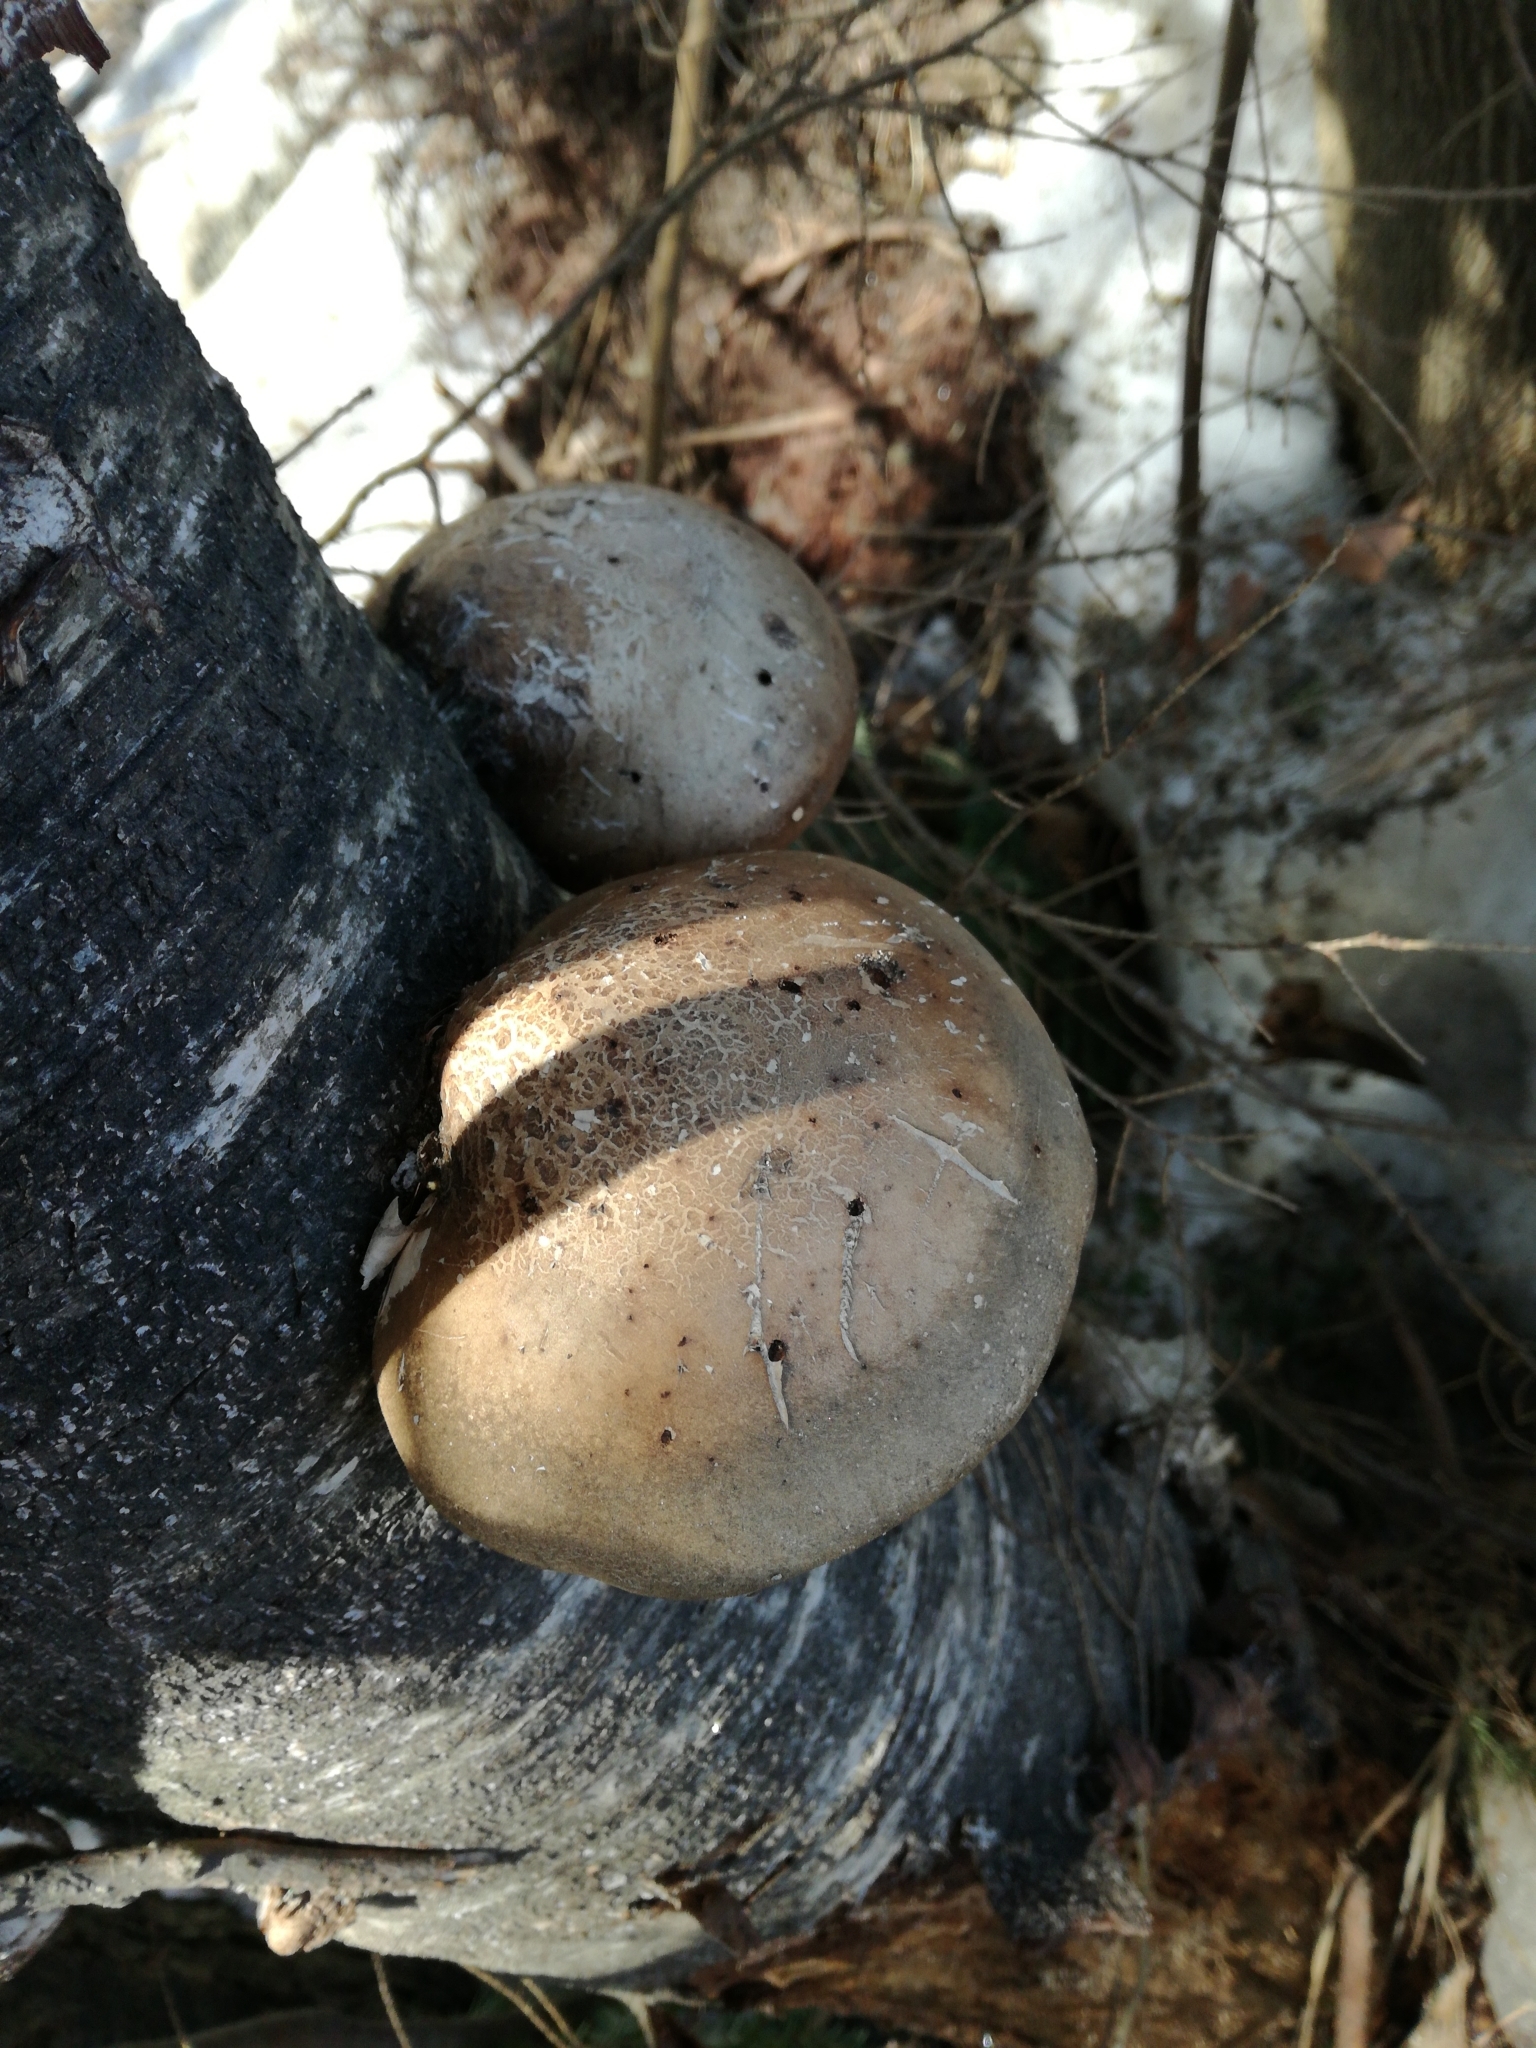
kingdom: Fungi
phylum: Basidiomycota
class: Agaricomycetes
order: Polyporales
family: Fomitopsidaceae
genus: Fomitopsis
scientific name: Fomitopsis betulina
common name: Birch polypore
